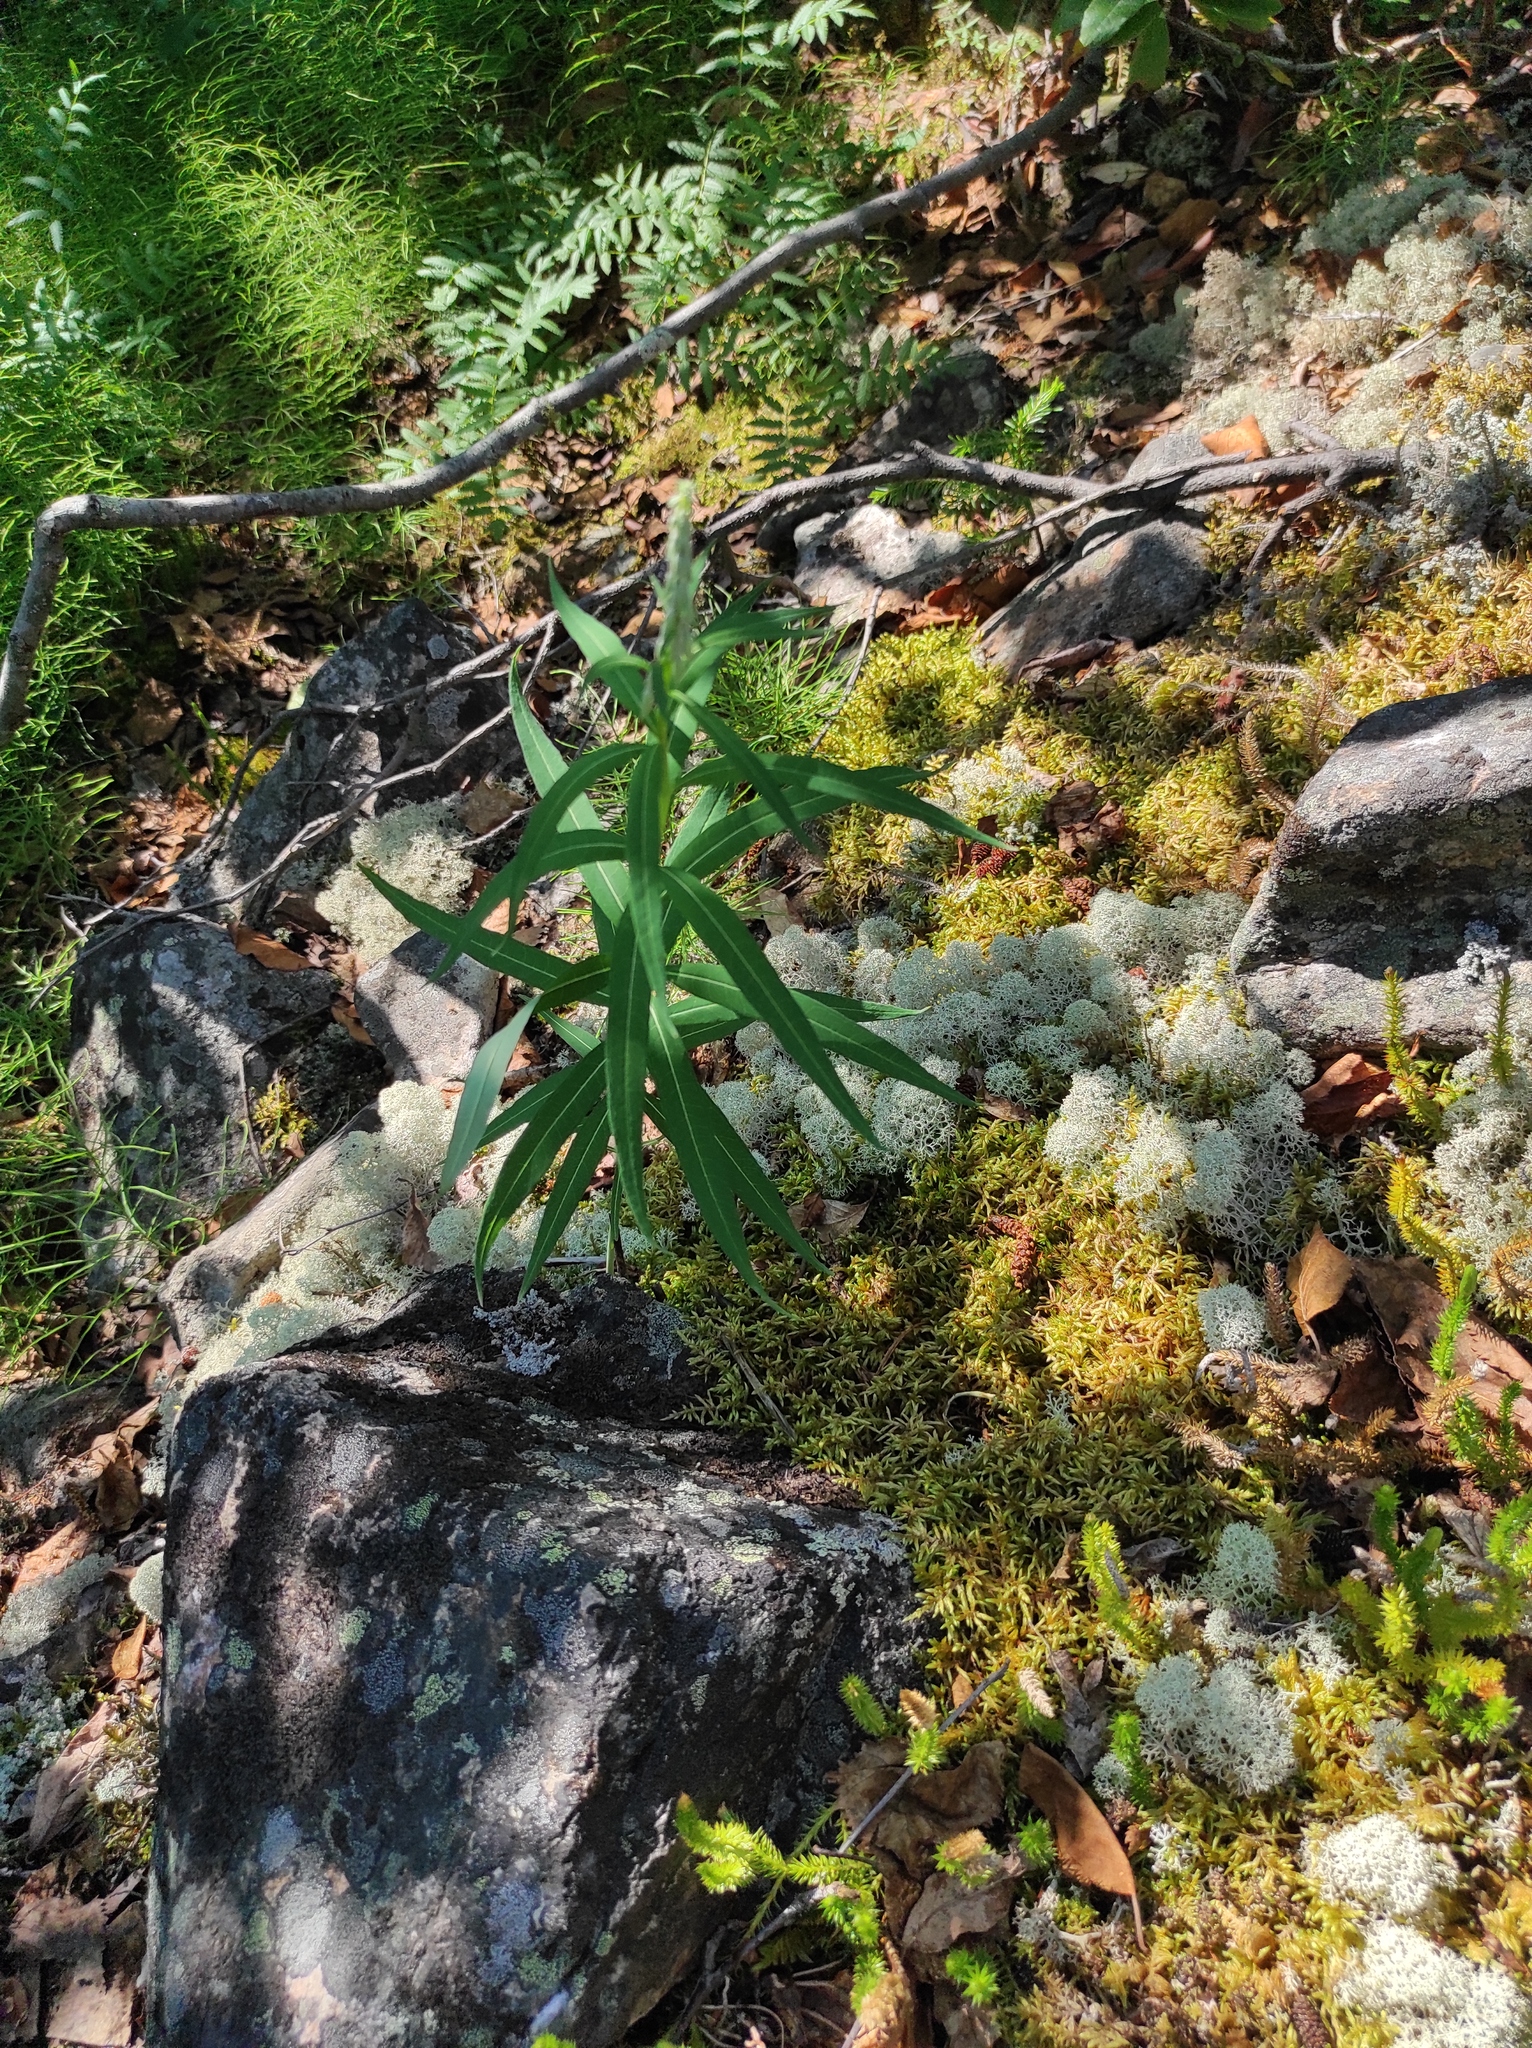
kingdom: Plantae
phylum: Tracheophyta
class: Lycopodiopsida
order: Lycopodiales
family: Lycopodiaceae
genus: Spinulum
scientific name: Spinulum annotinum
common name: Interrupted club-moss
